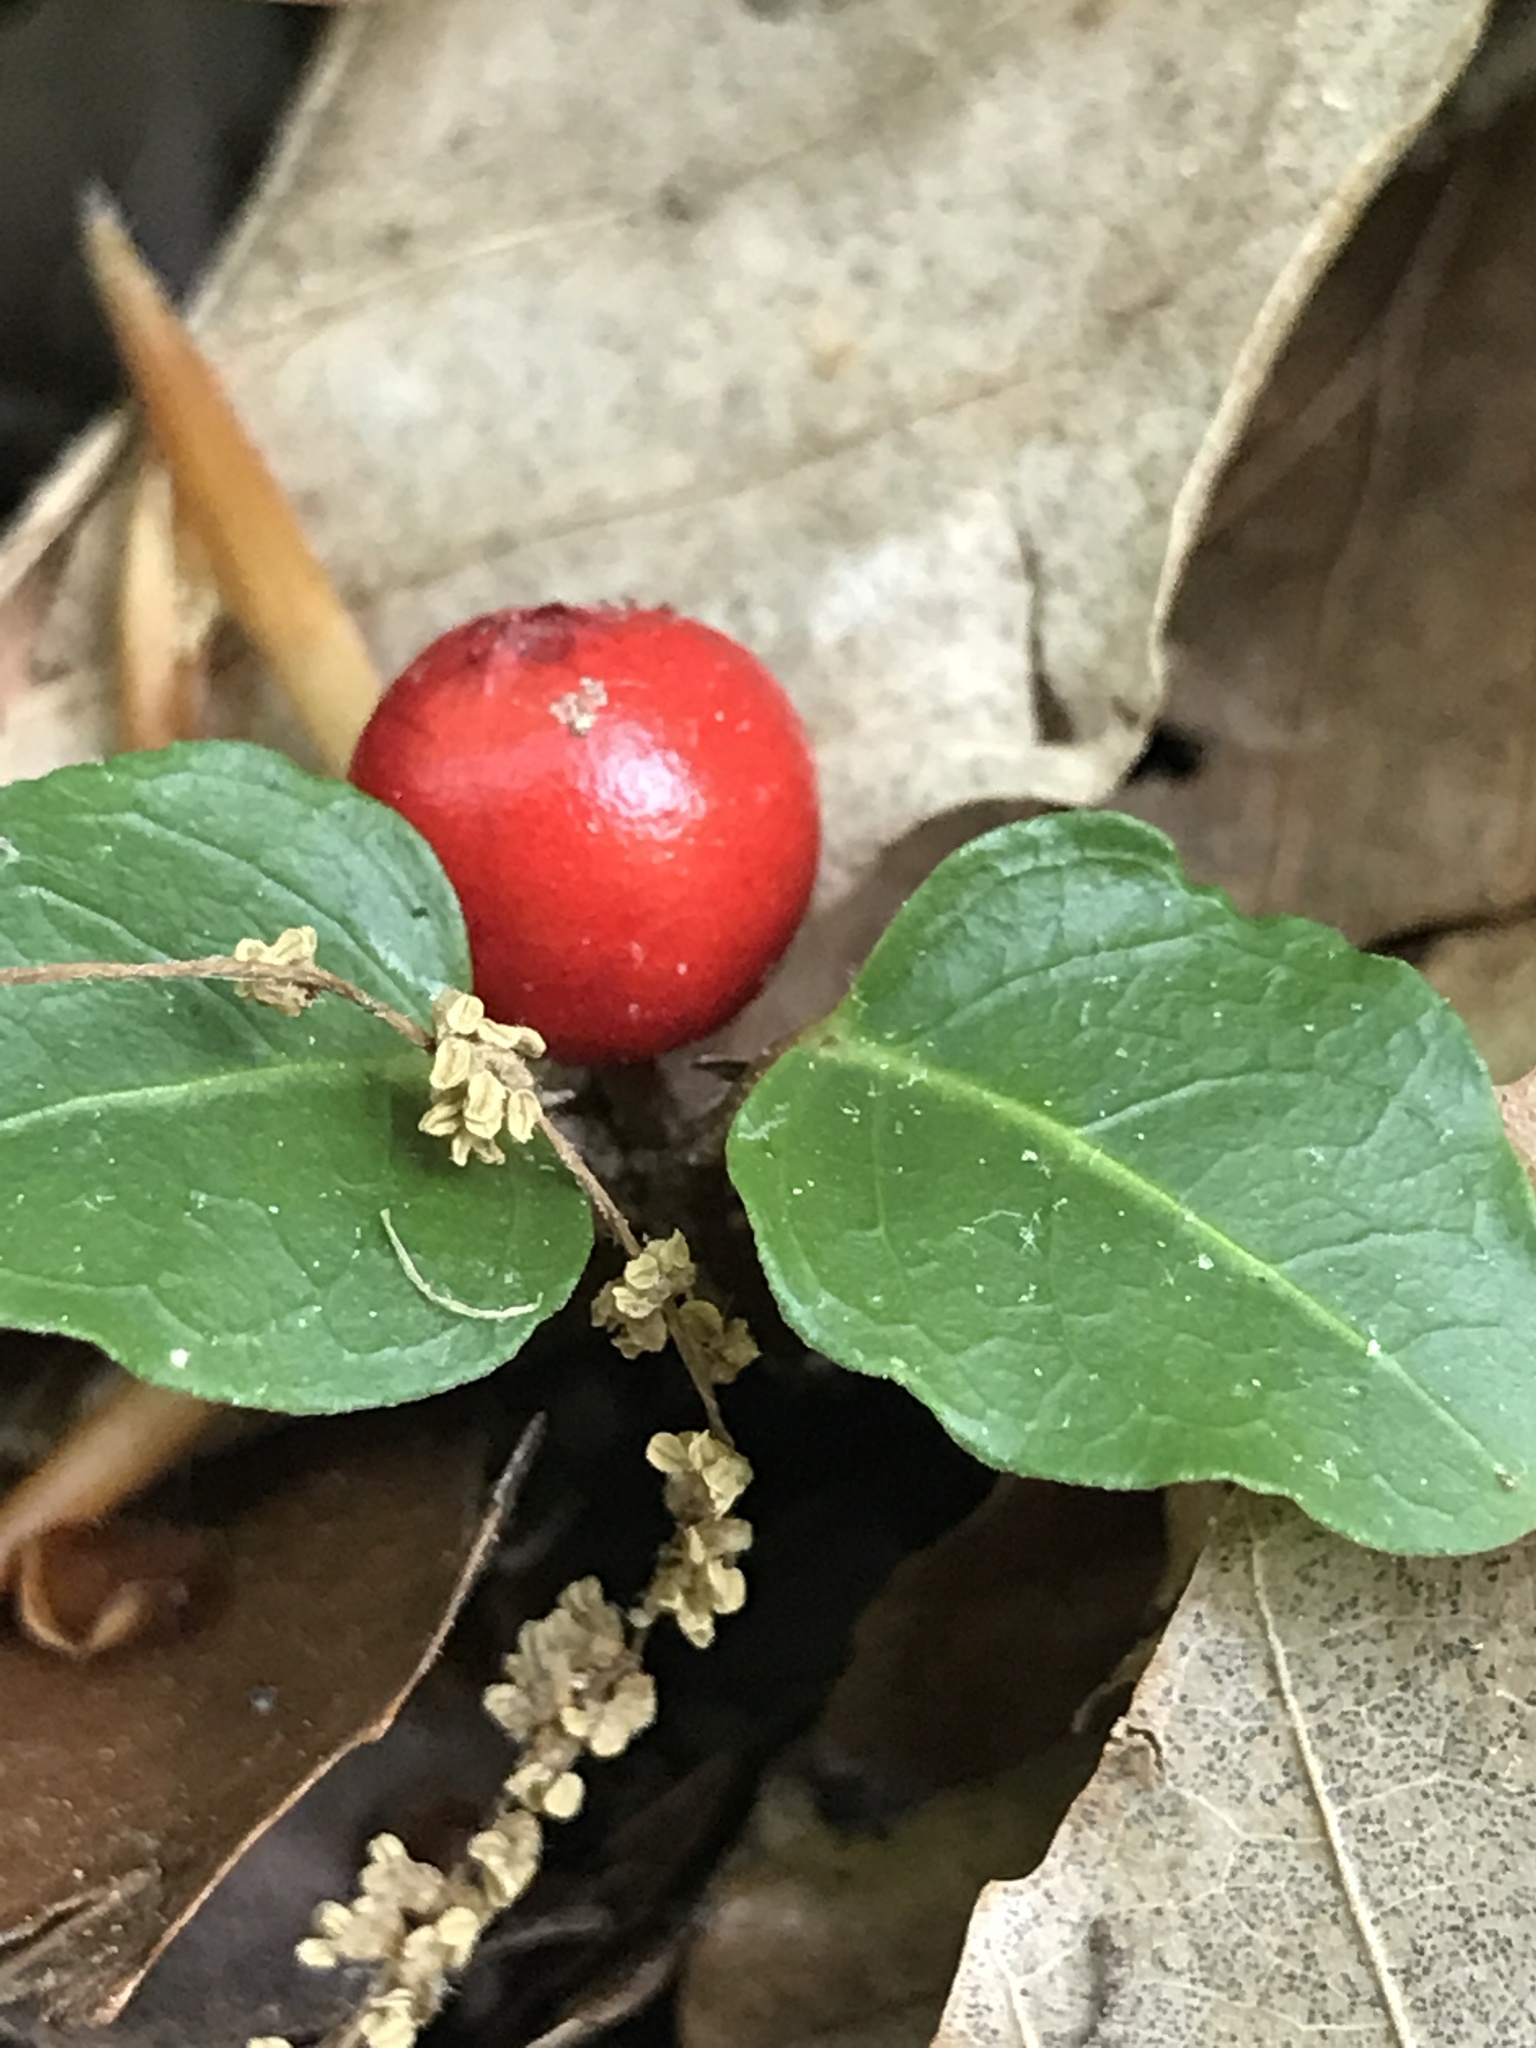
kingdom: Plantae
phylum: Tracheophyta
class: Magnoliopsida
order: Gentianales
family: Rubiaceae
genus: Mitchella
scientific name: Mitchella repens
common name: Partridge-berry
